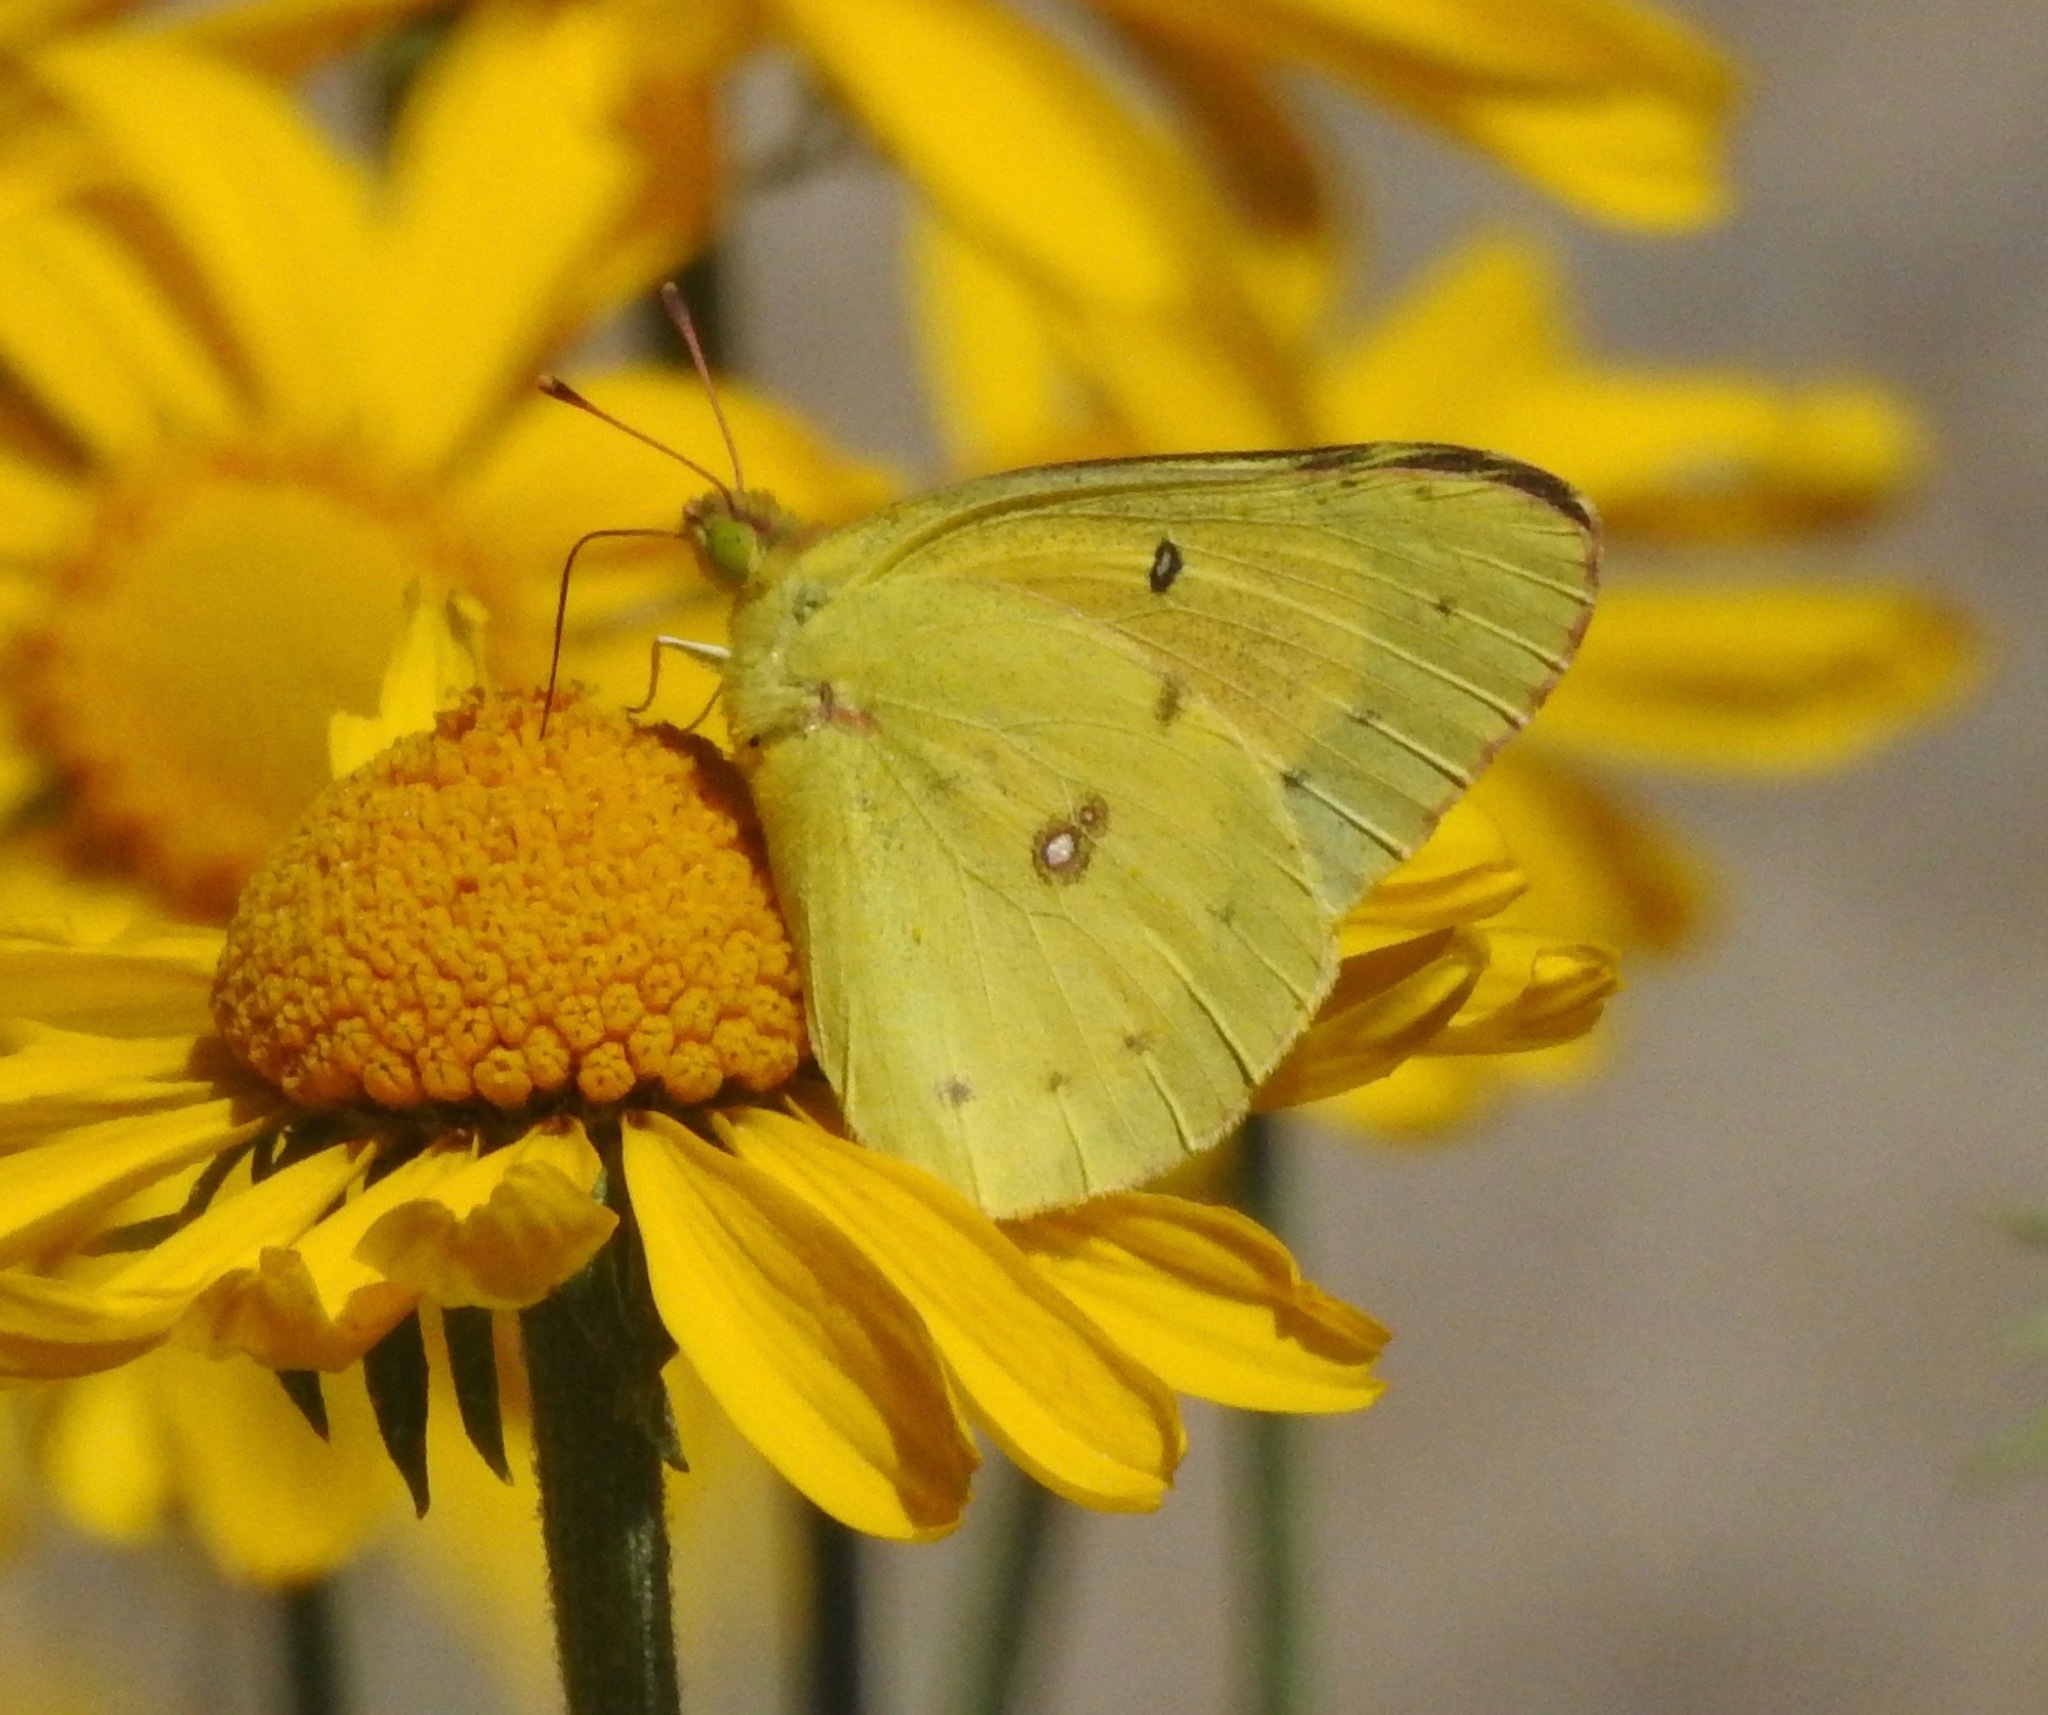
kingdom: Animalia
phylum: Arthropoda
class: Insecta
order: Lepidoptera
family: Pieridae
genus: Colias
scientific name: Colias eurytheme
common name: Alfalfa butterfly
